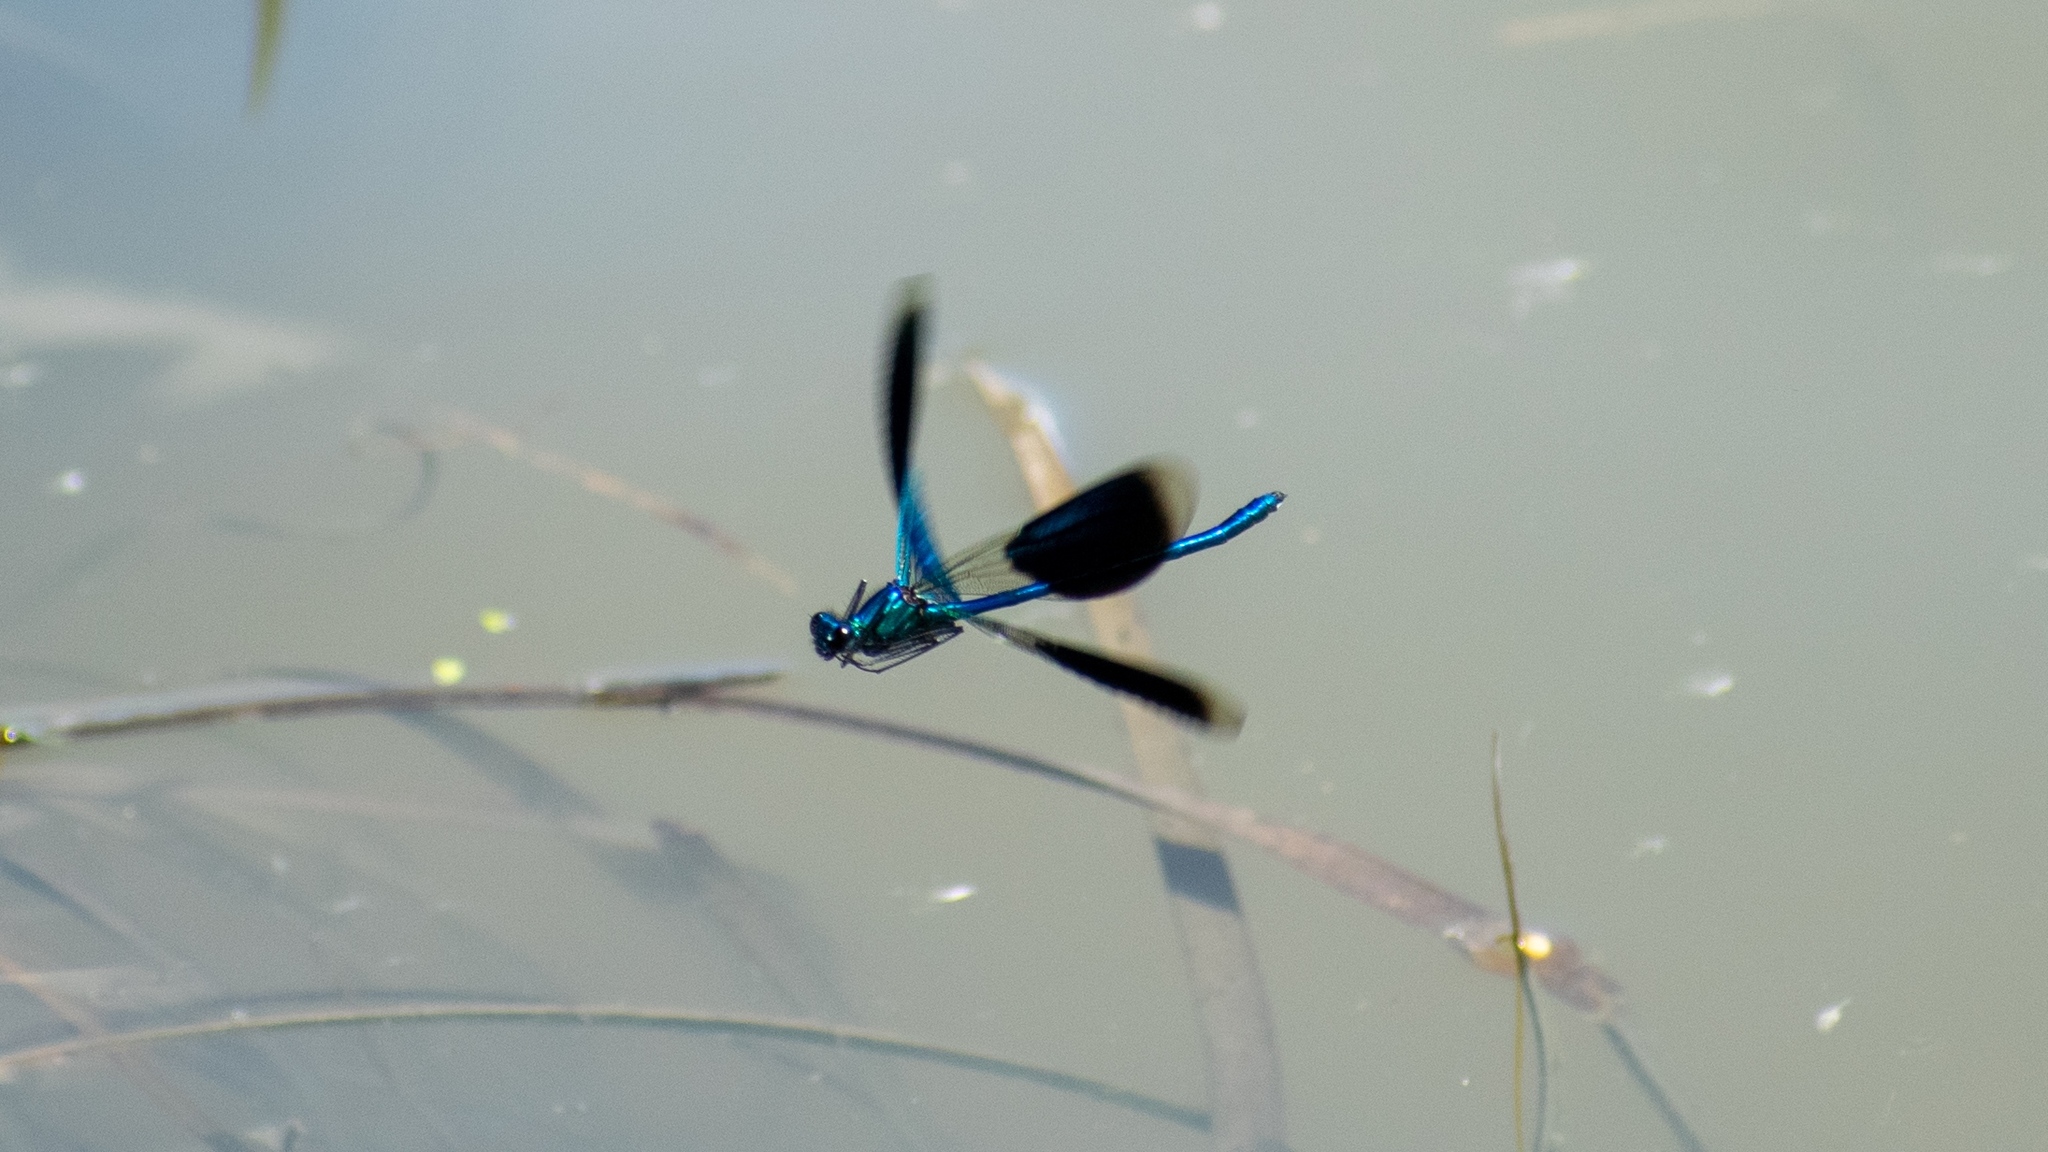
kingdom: Animalia
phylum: Arthropoda
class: Insecta
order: Odonata
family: Calopterygidae
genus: Calopteryx
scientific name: Calopteryx splendens
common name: Banded demoiselle
